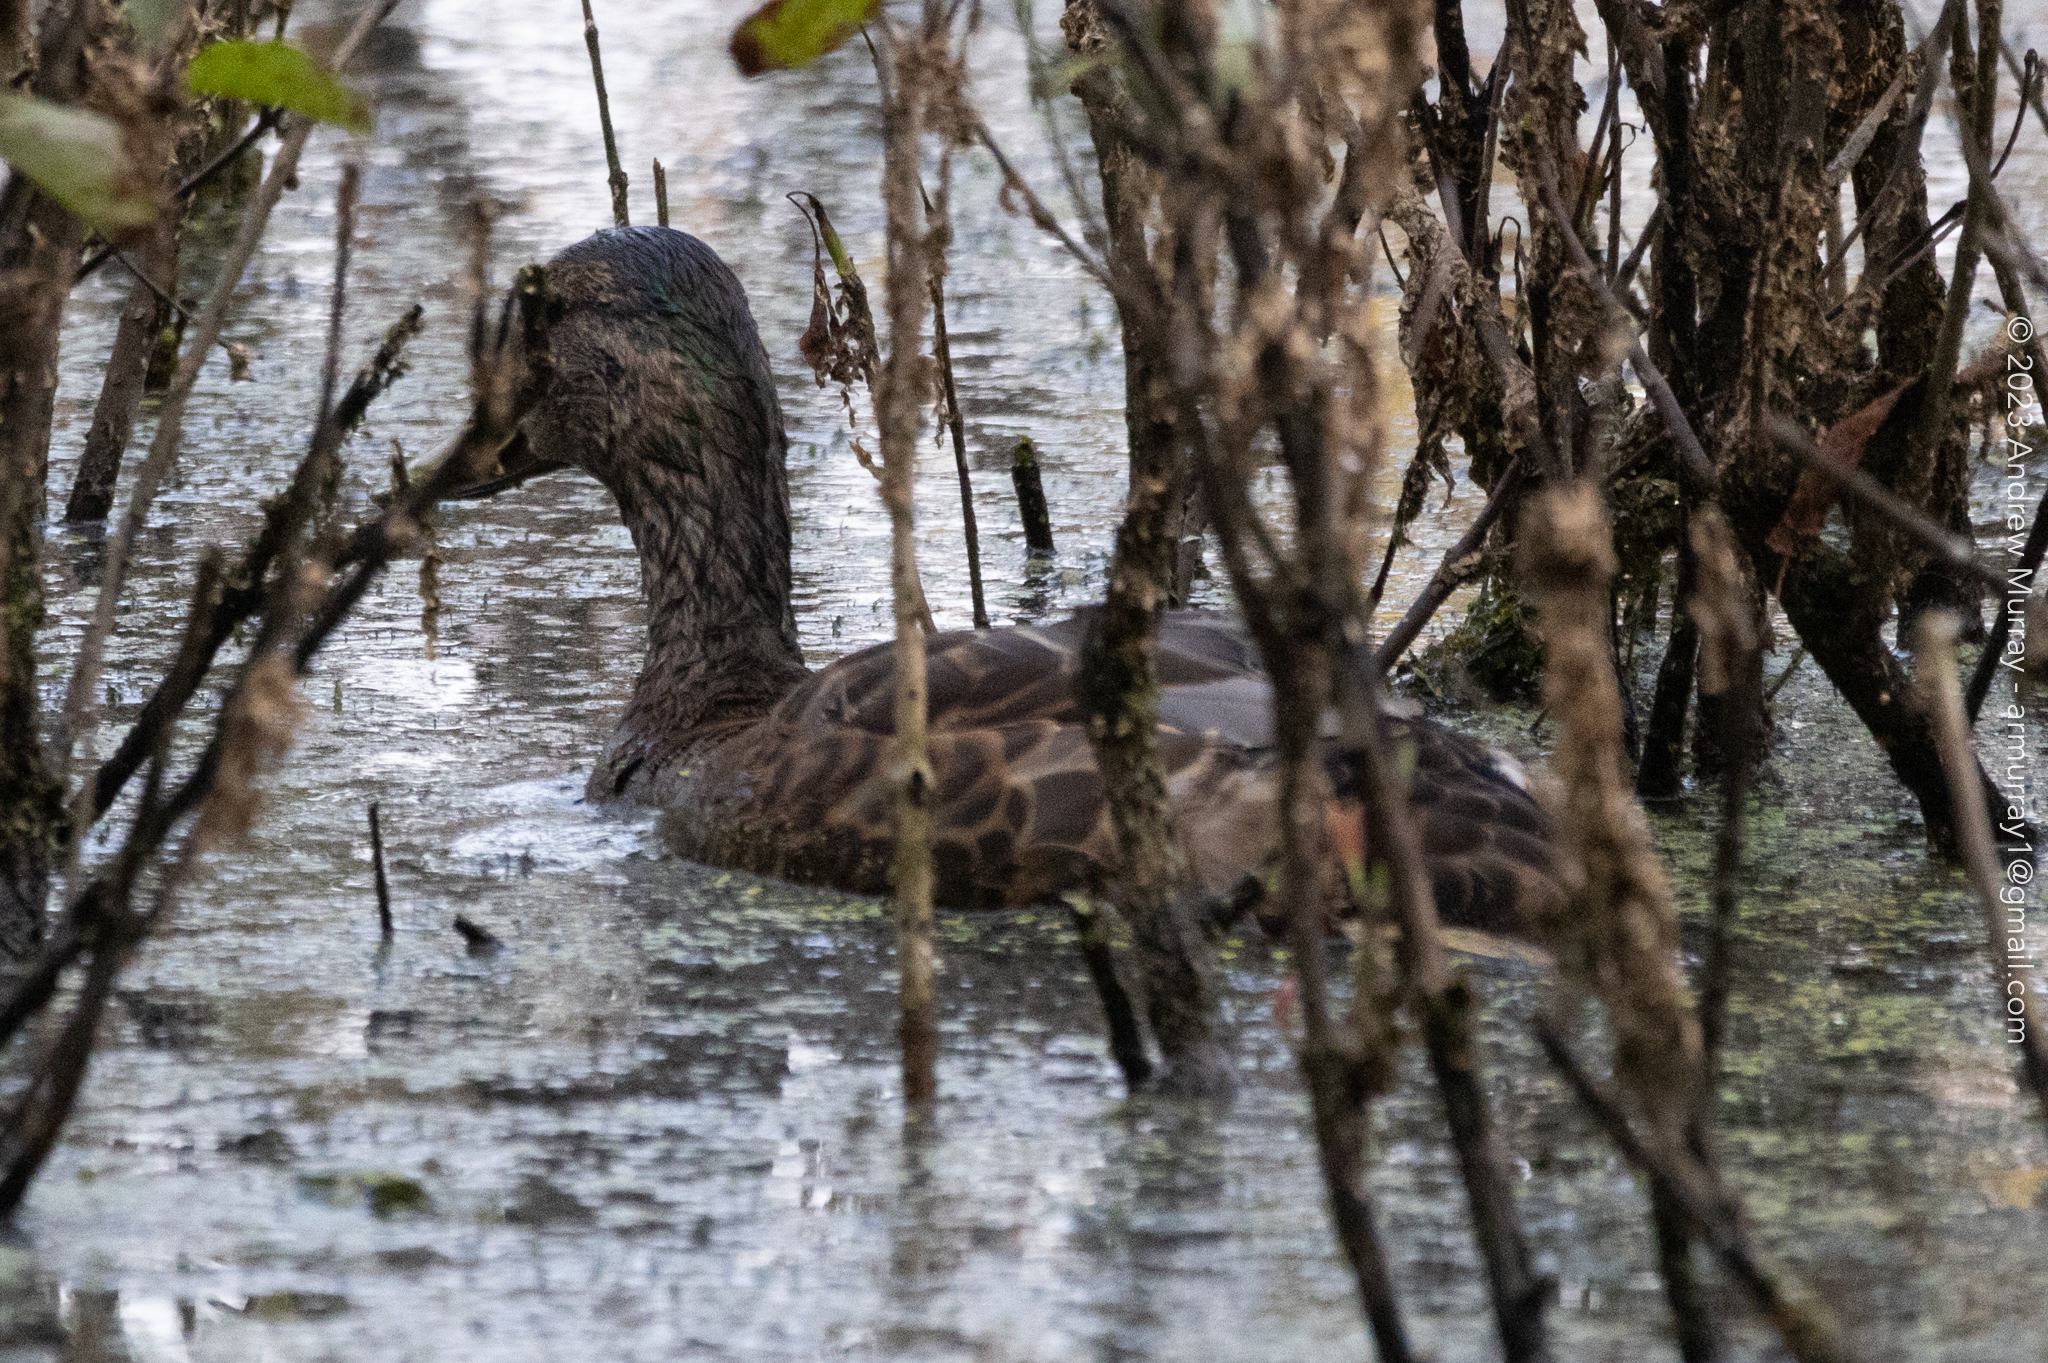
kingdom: Animalia
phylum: Chordata
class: Aves
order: Anseriformes
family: Anatidae
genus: Anas
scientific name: Anas platyrhynchos
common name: Mallard
